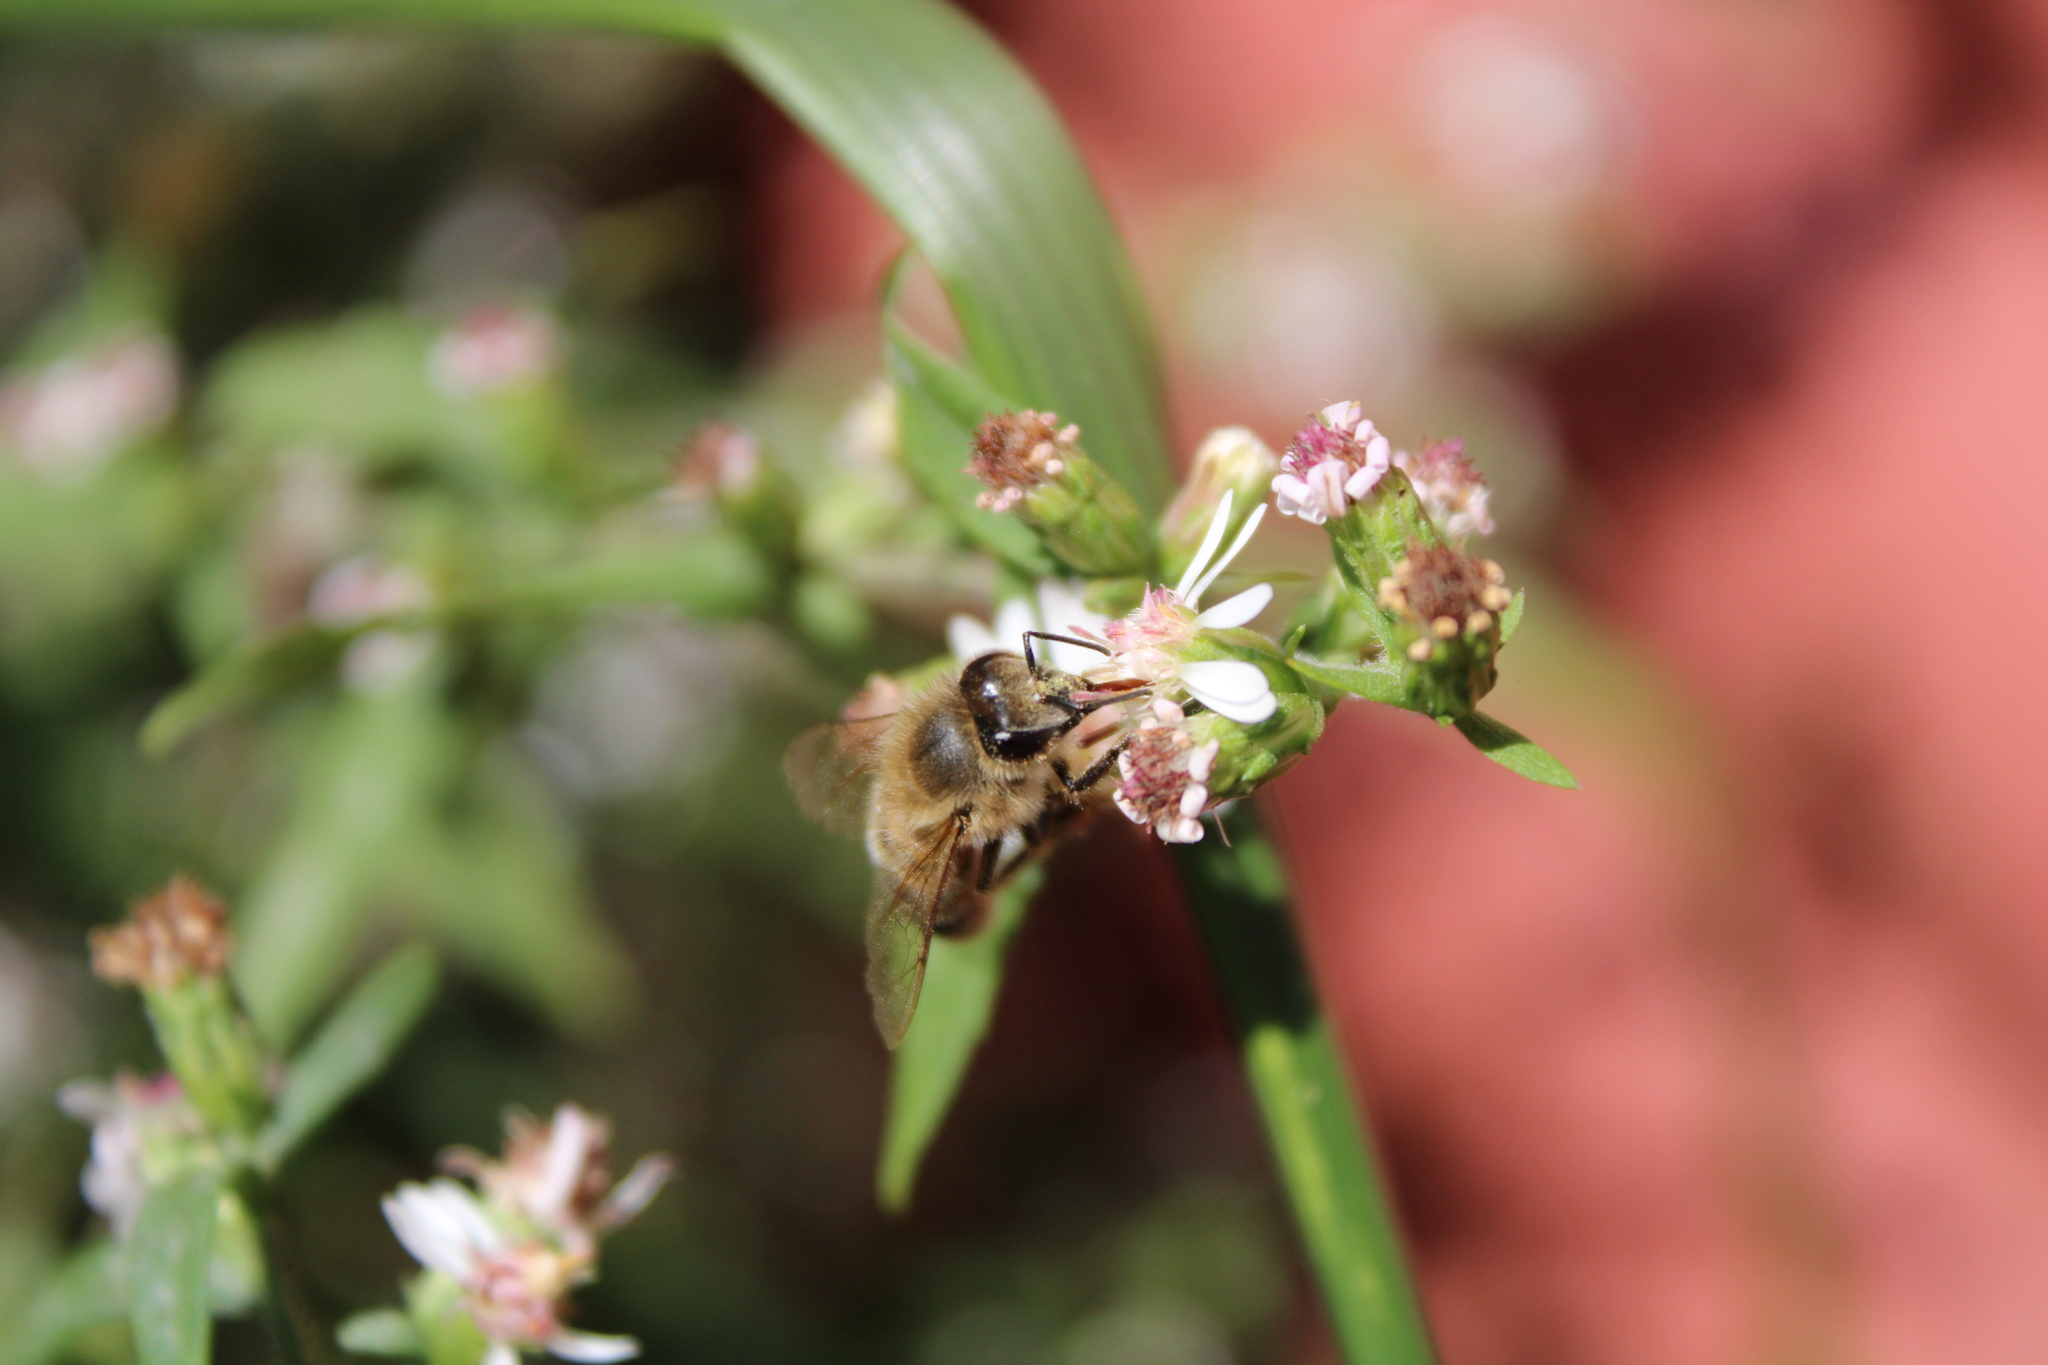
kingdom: Animalia
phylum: Arthropoda
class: Insecta
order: Hymenoptera
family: Apidae
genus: Apis
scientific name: Apis mellifera
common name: Honey bee
